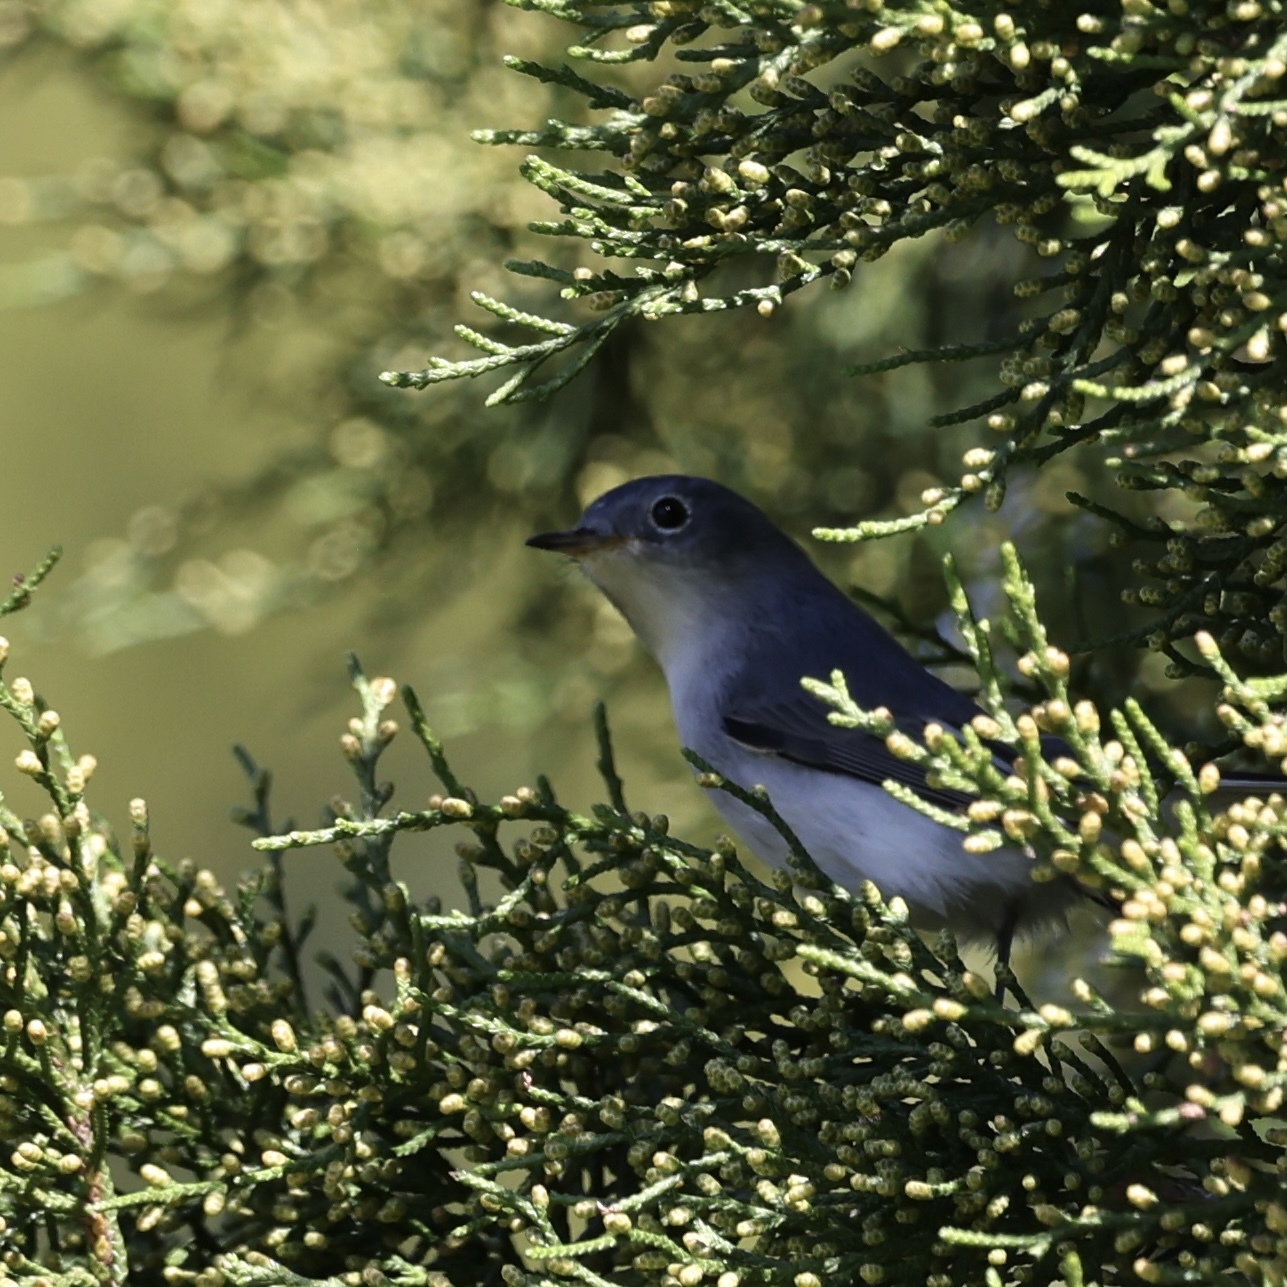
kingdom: Animalia
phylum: Chordata
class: Aves
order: Passeriformes
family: Polioptilidae
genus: Polioptila
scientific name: Polioptila caerulea
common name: Blue-gray gnatcatcher
